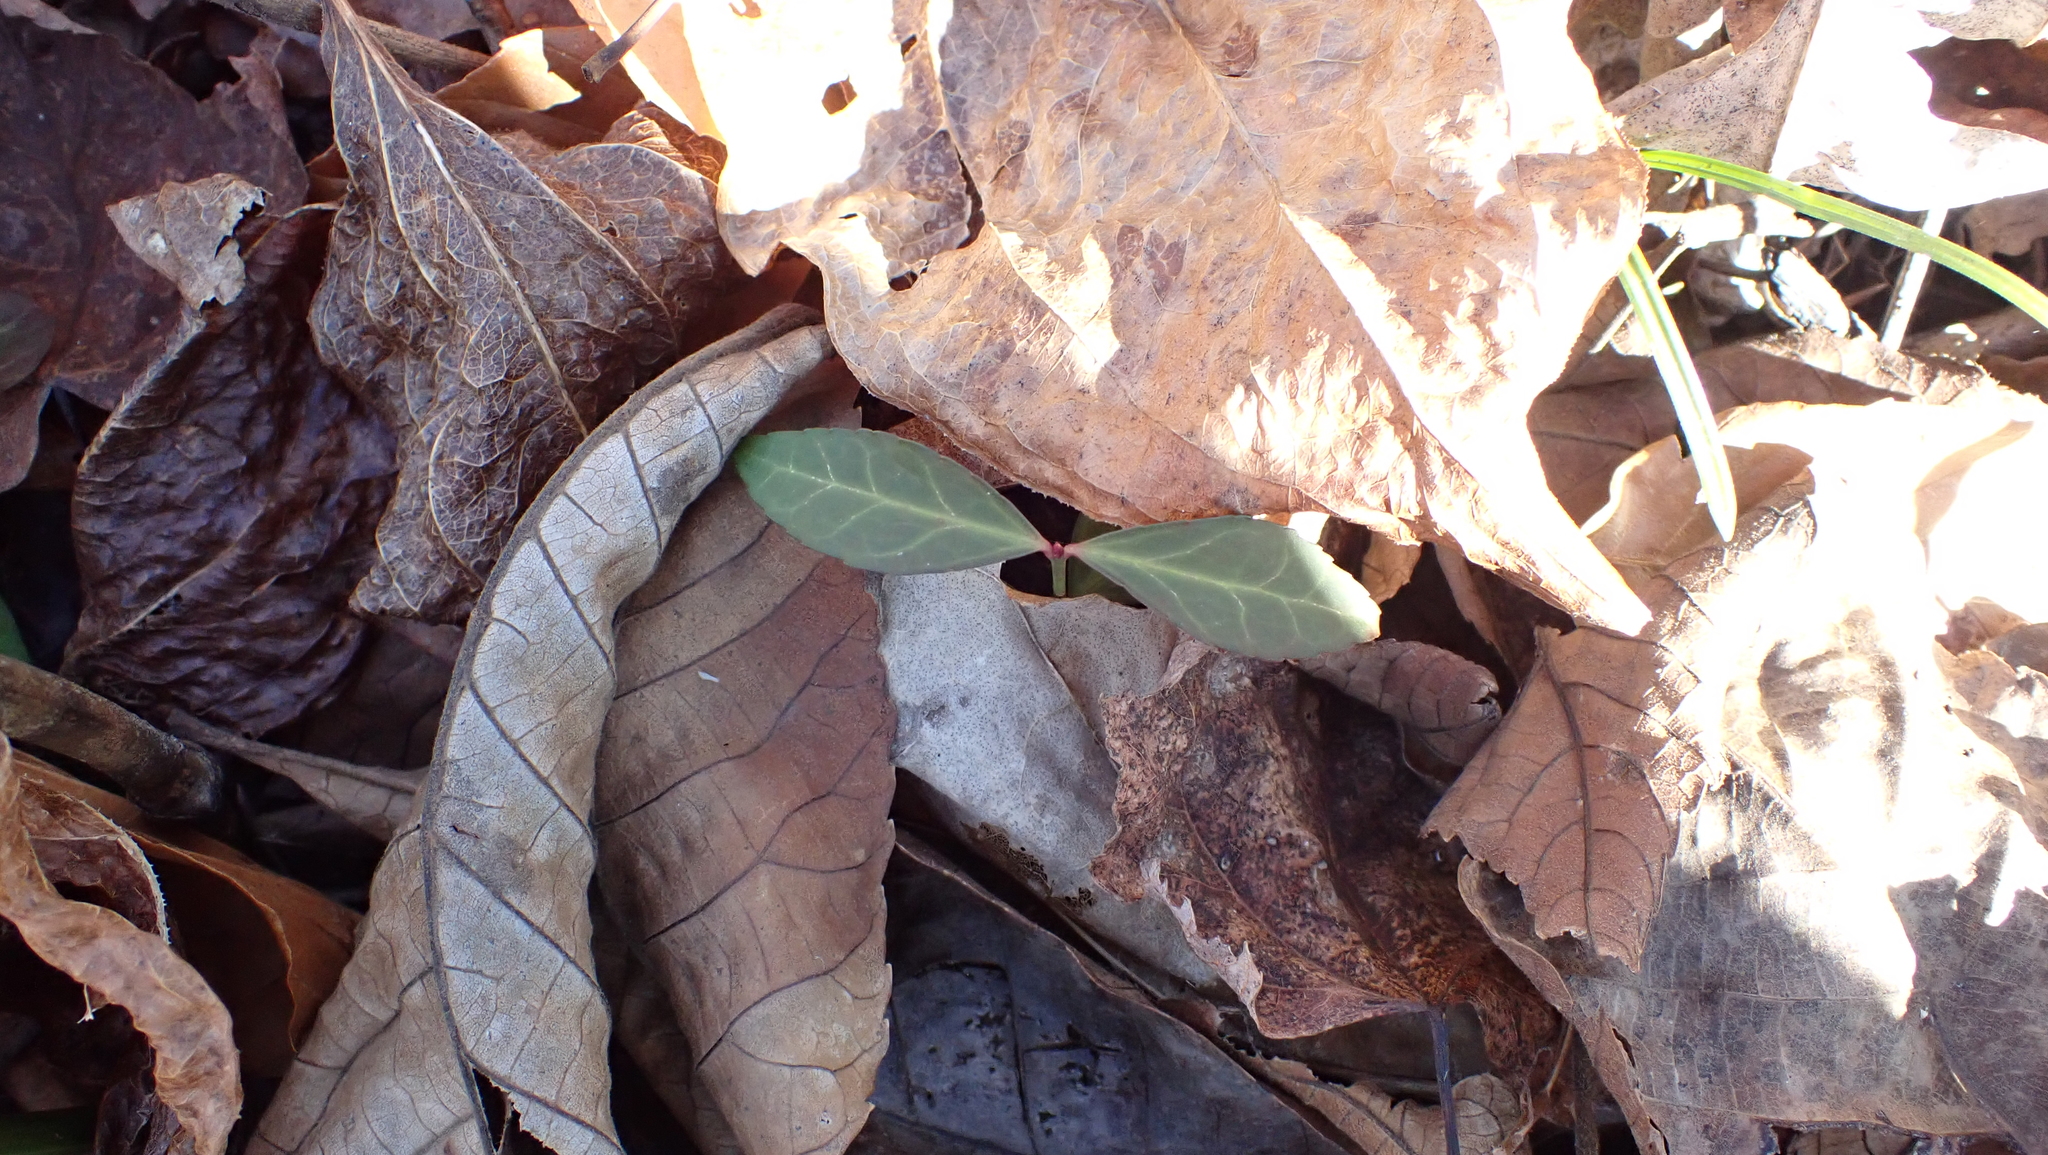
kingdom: Plantae
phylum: Tracheophyta
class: Magnoliopsida
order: Celastrales
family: Celastraceae
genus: Euonymus
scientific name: Euonymus fortunei
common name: Climbing euonymus
